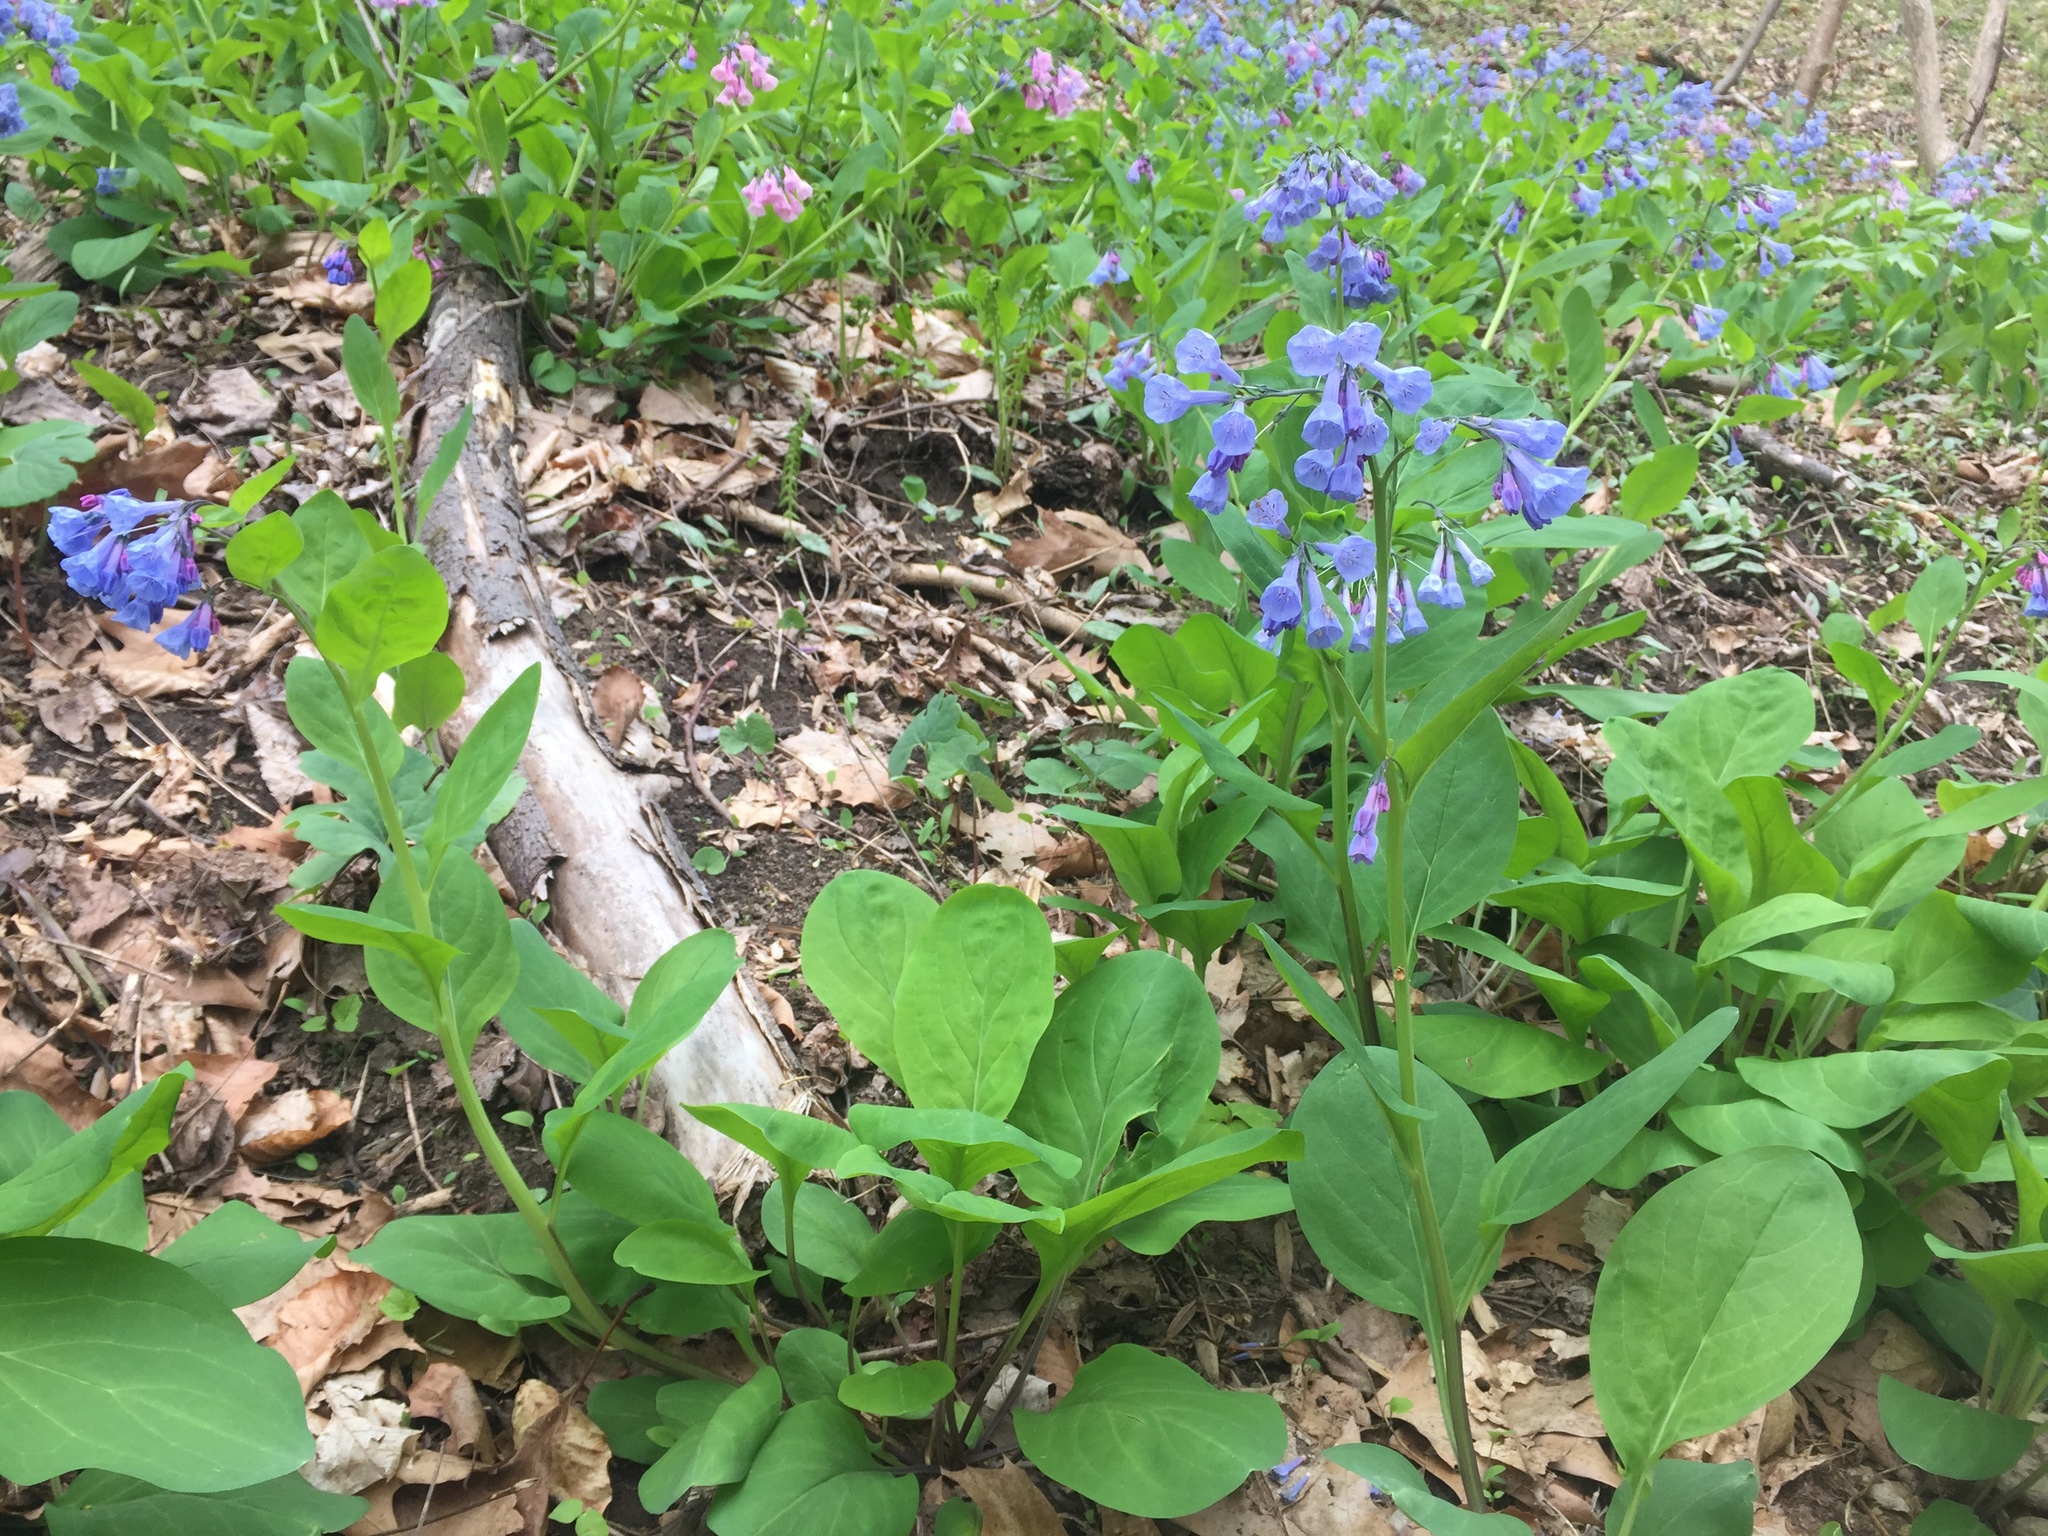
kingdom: Plantae
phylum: Tracheophyta
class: Magnoliopsida
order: Boraginales
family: Boraginaceae
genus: Mertensia
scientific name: Mertensia virginica
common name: Virginia bluebells
